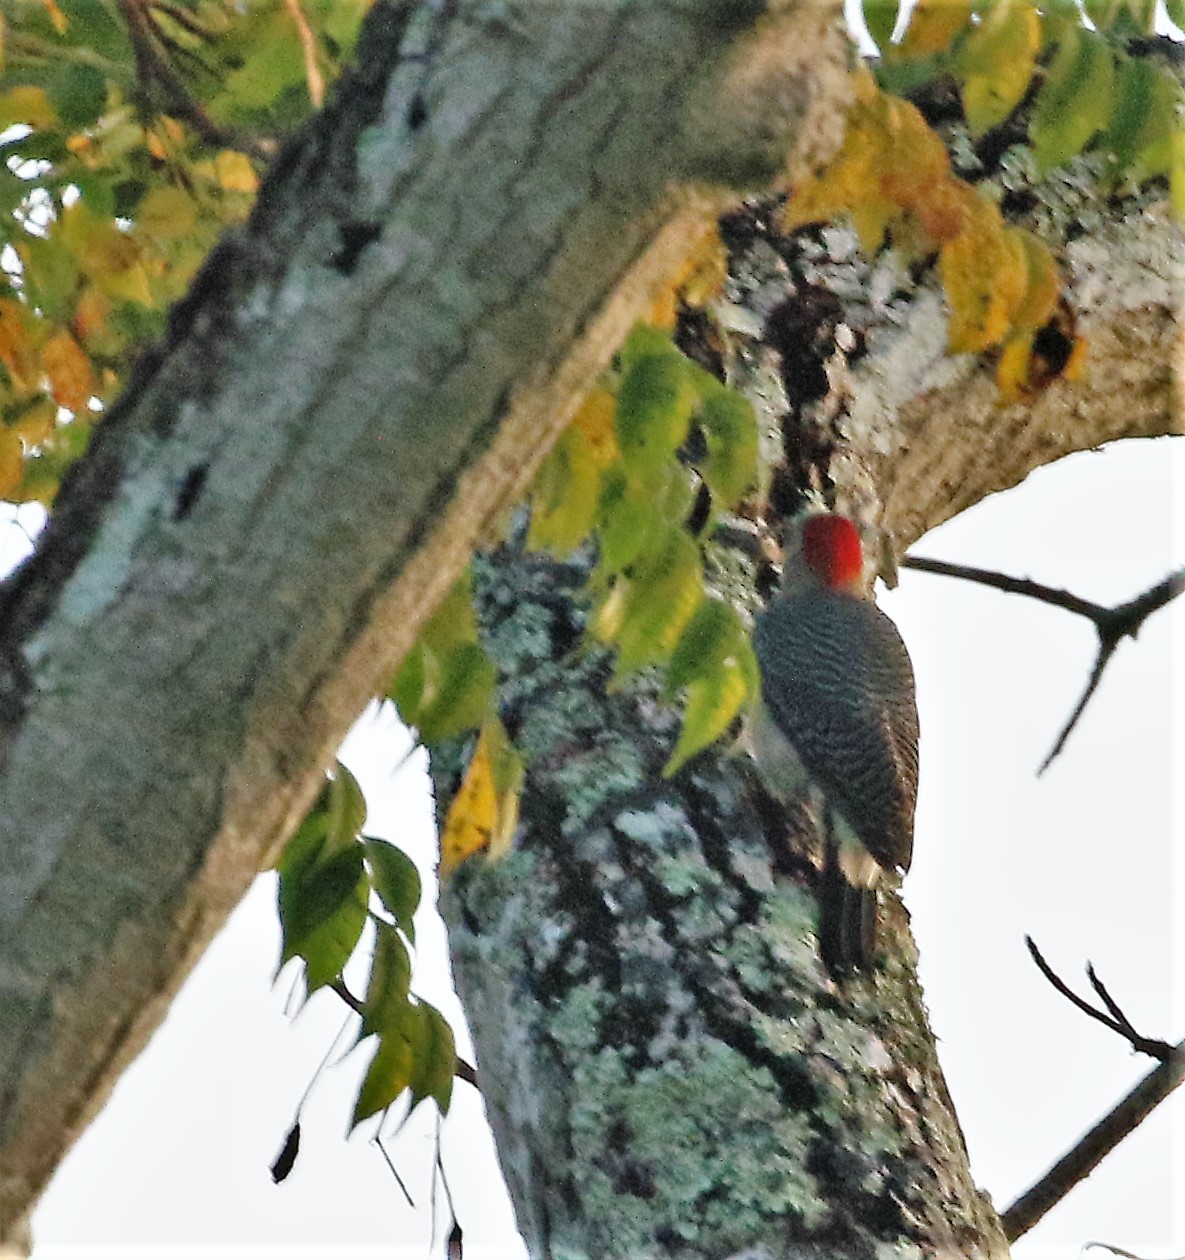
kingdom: Animalia
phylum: Chordata
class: Aves
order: Piciformes
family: Picidae
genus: Melanerpes
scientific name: Melanerpes aurifrons
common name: Golden-fronted woodpecker
